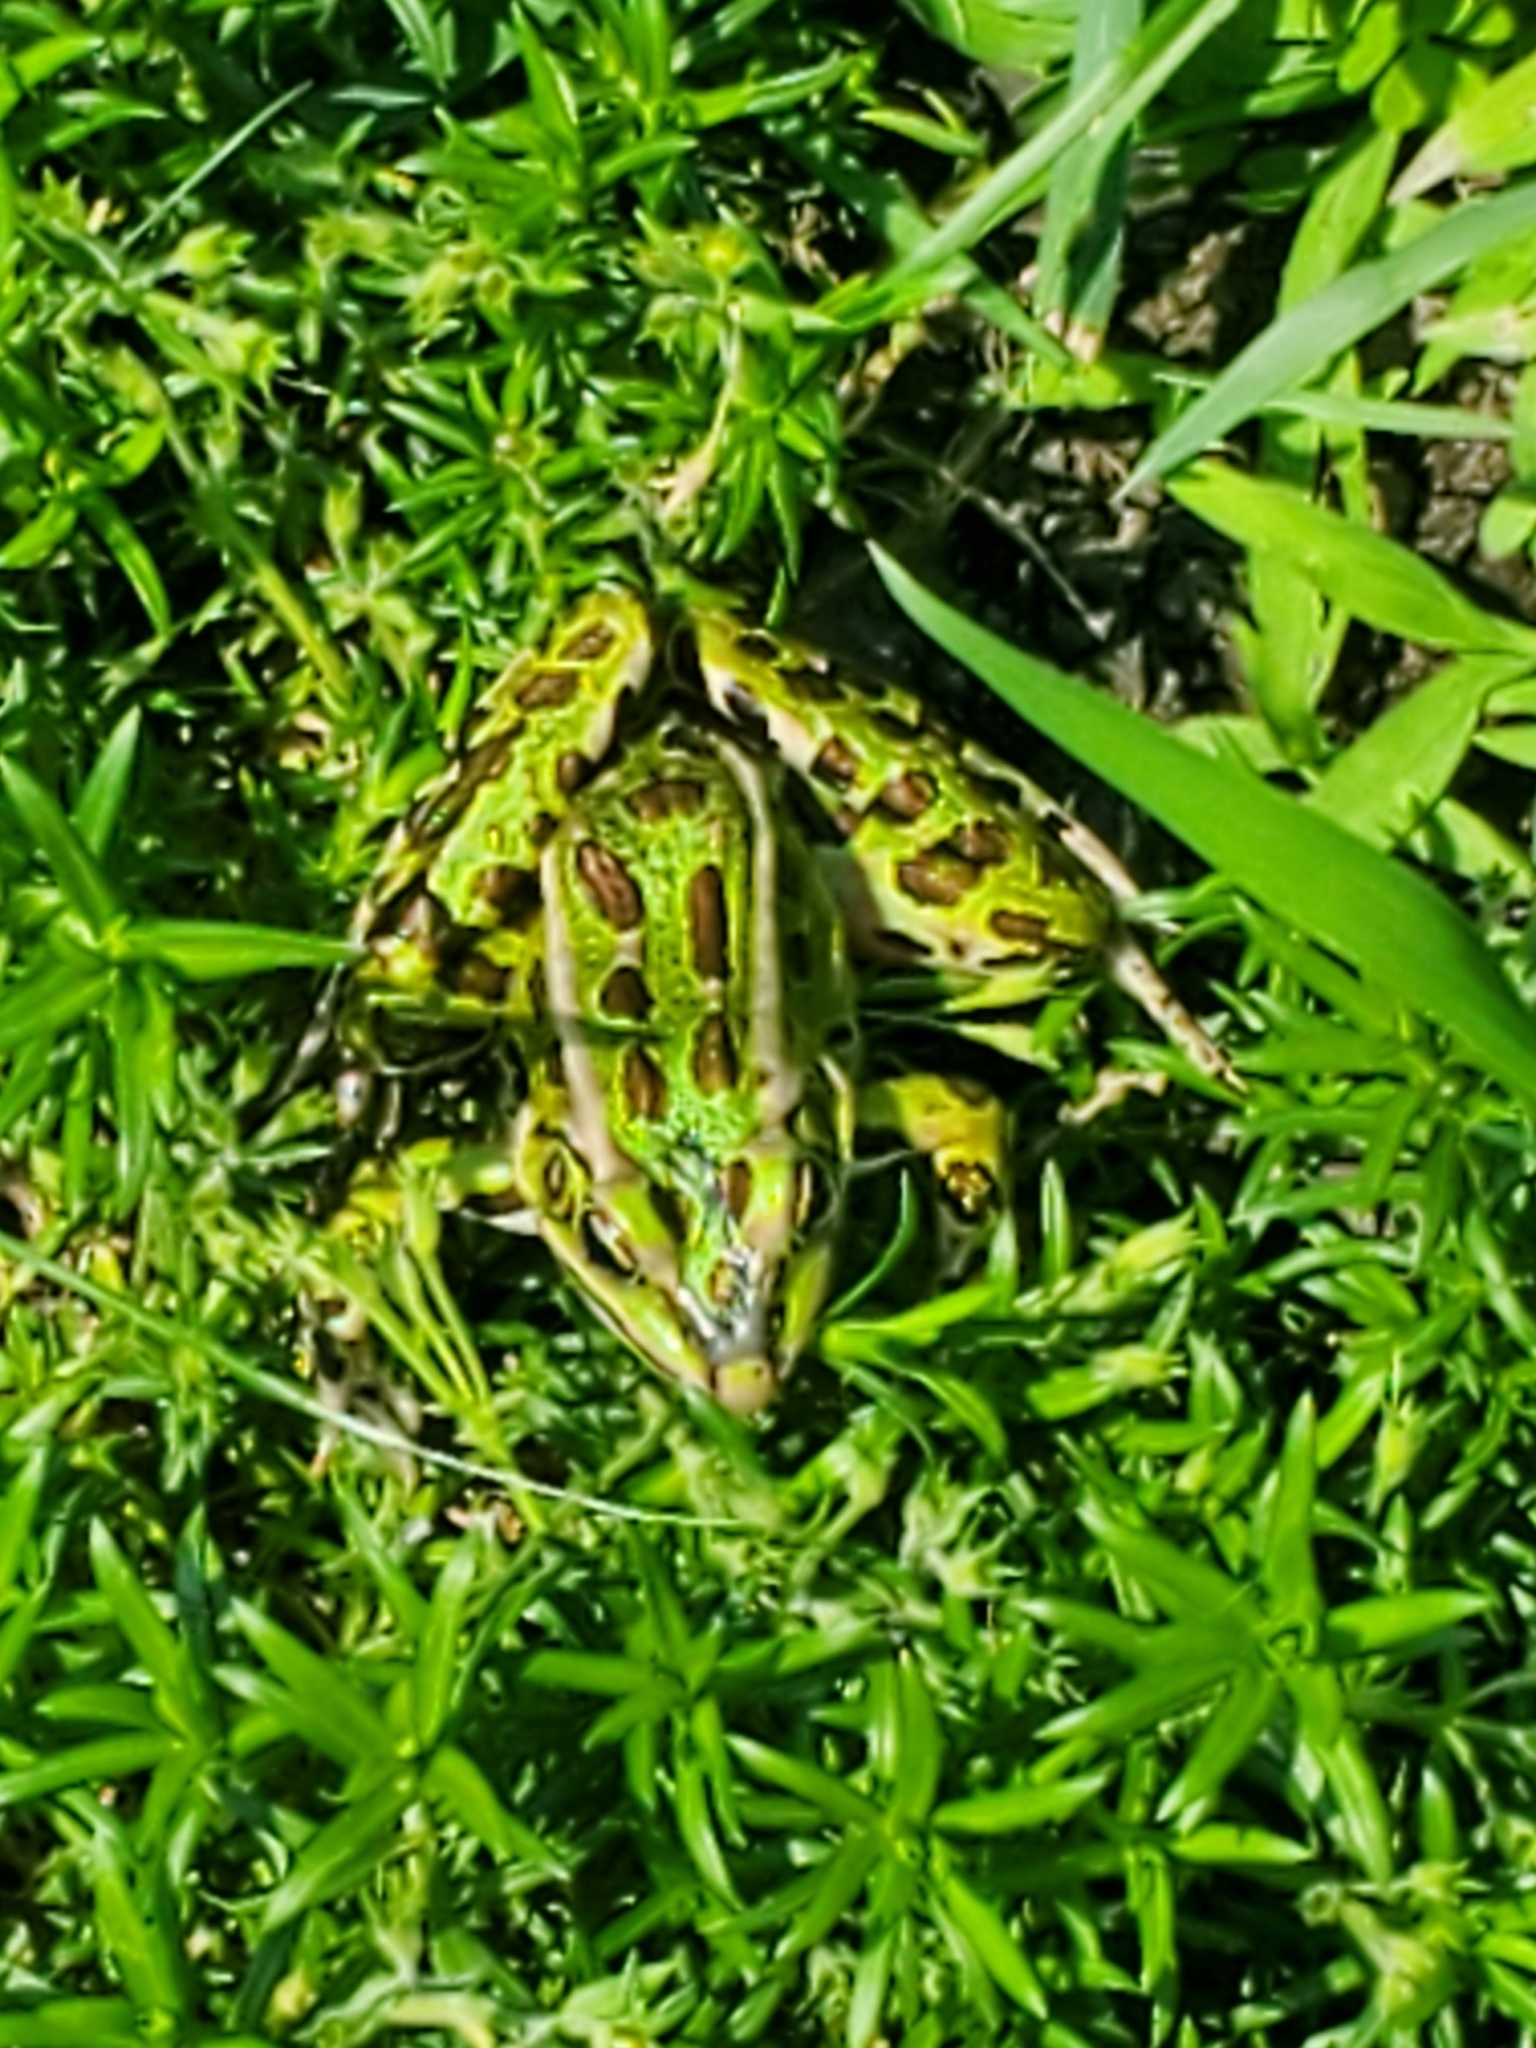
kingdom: Animalia
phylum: Chordata
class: Amphibia
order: Anura
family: Ranidae
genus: Lithobates
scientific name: Lithobates pipiens
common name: Northern leopard frog
